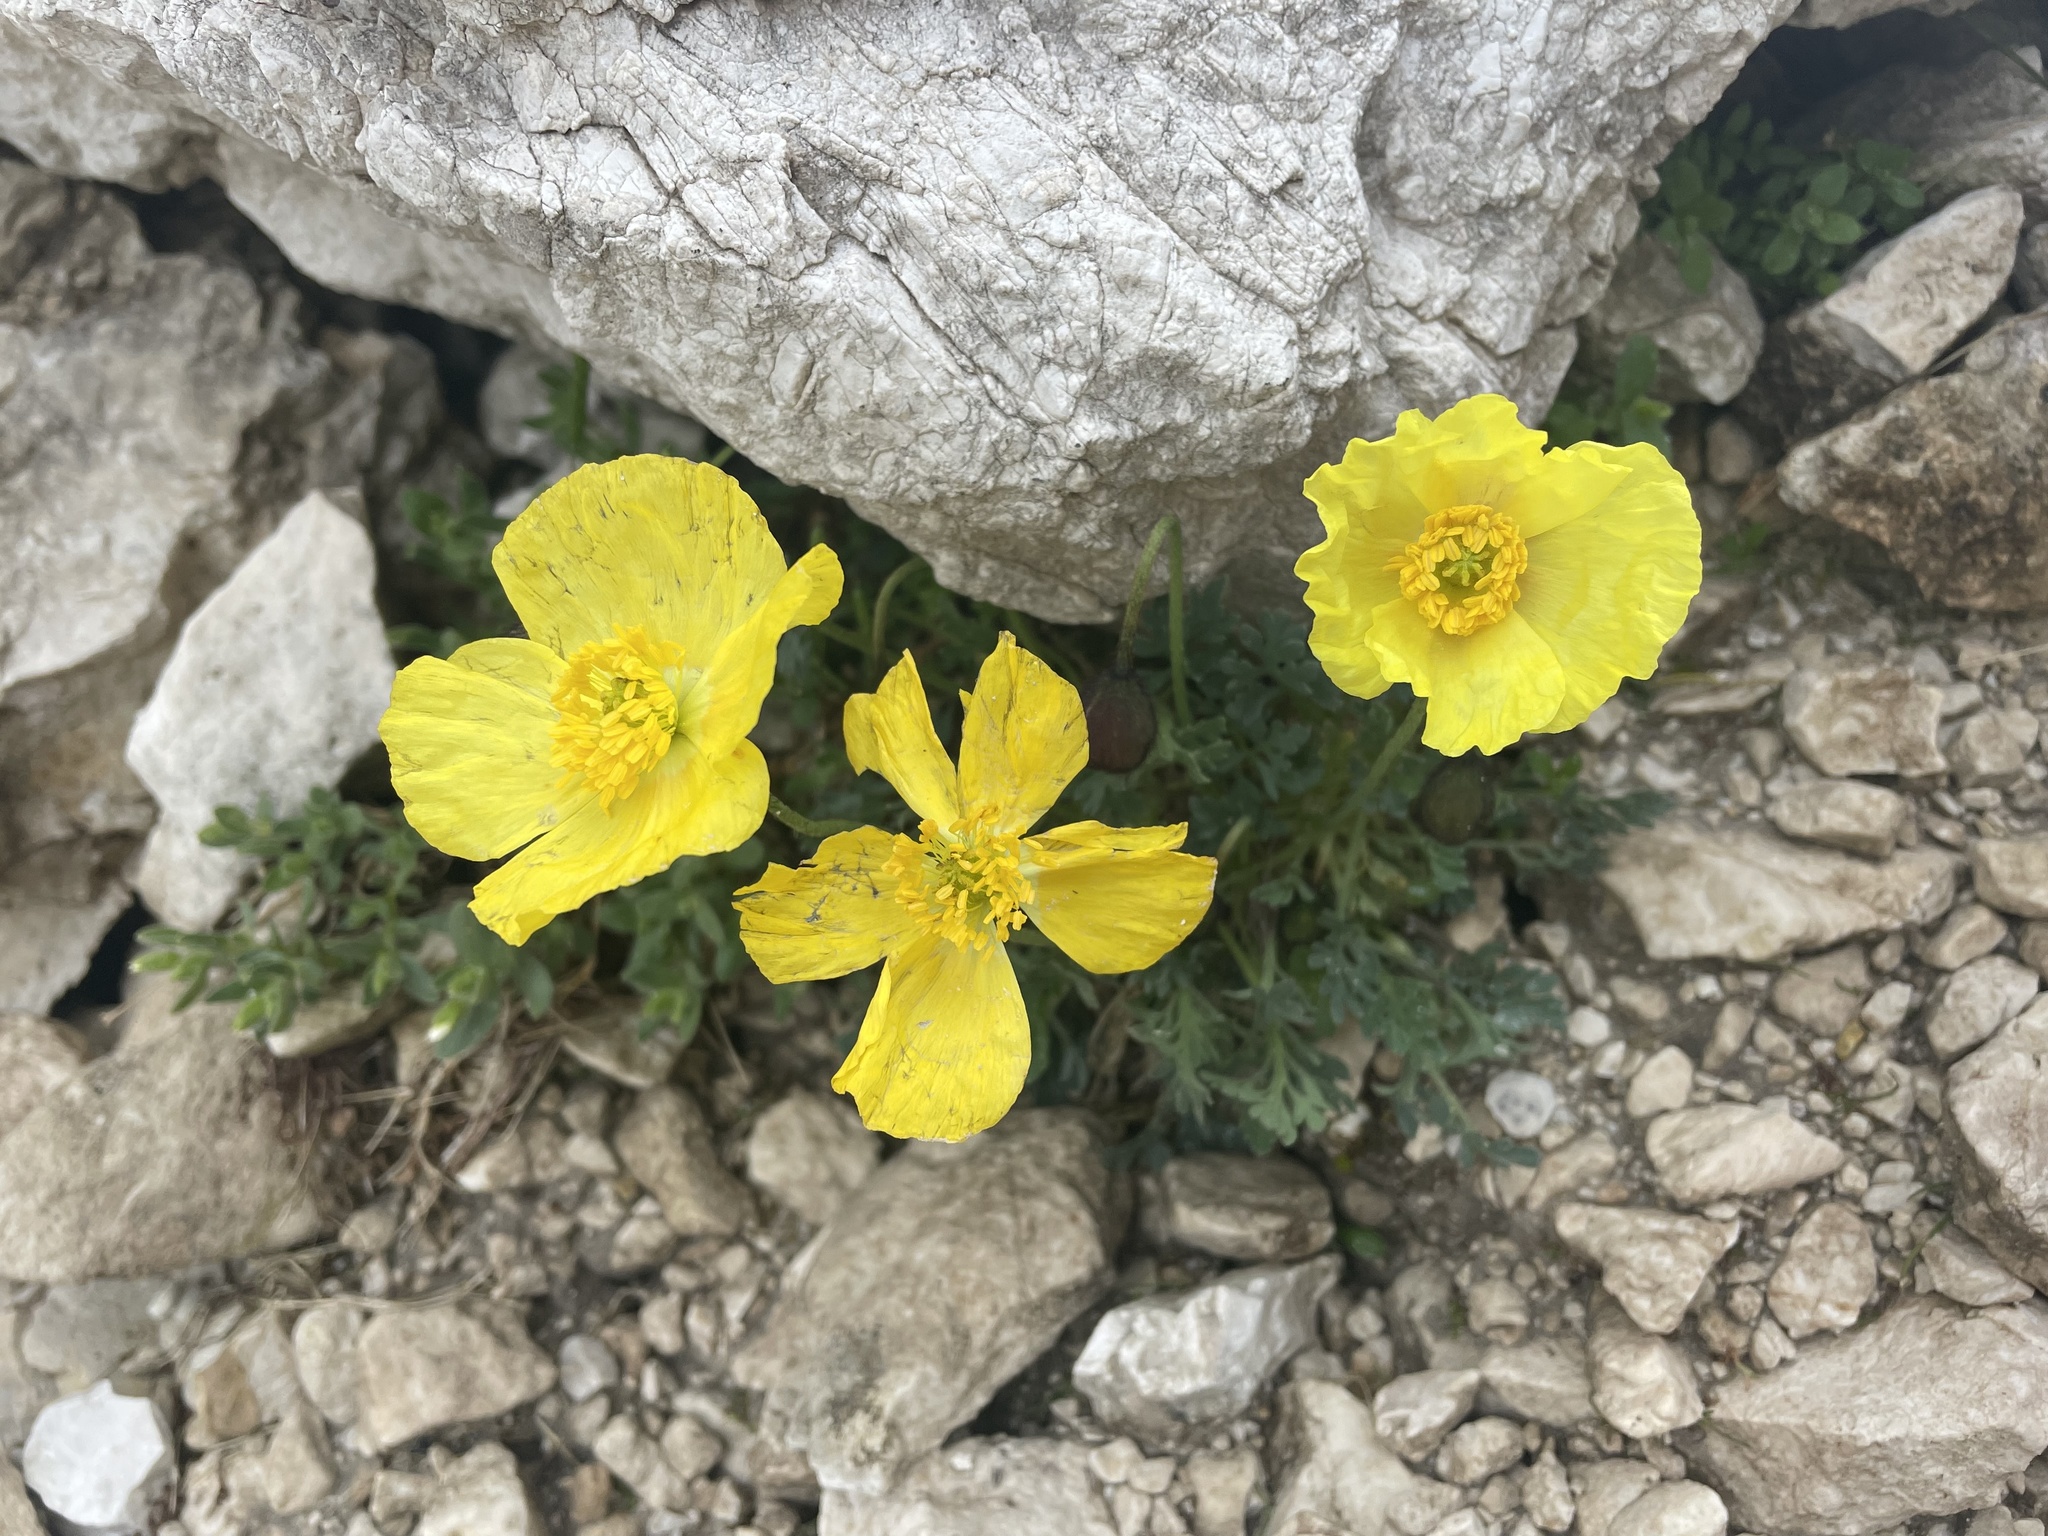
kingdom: Plantae
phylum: Tracheophyta
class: Magnoliopsida
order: Ranunculales
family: Papaveraceae
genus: Papaver
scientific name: Papaver alpinum
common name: Austrian poppy
